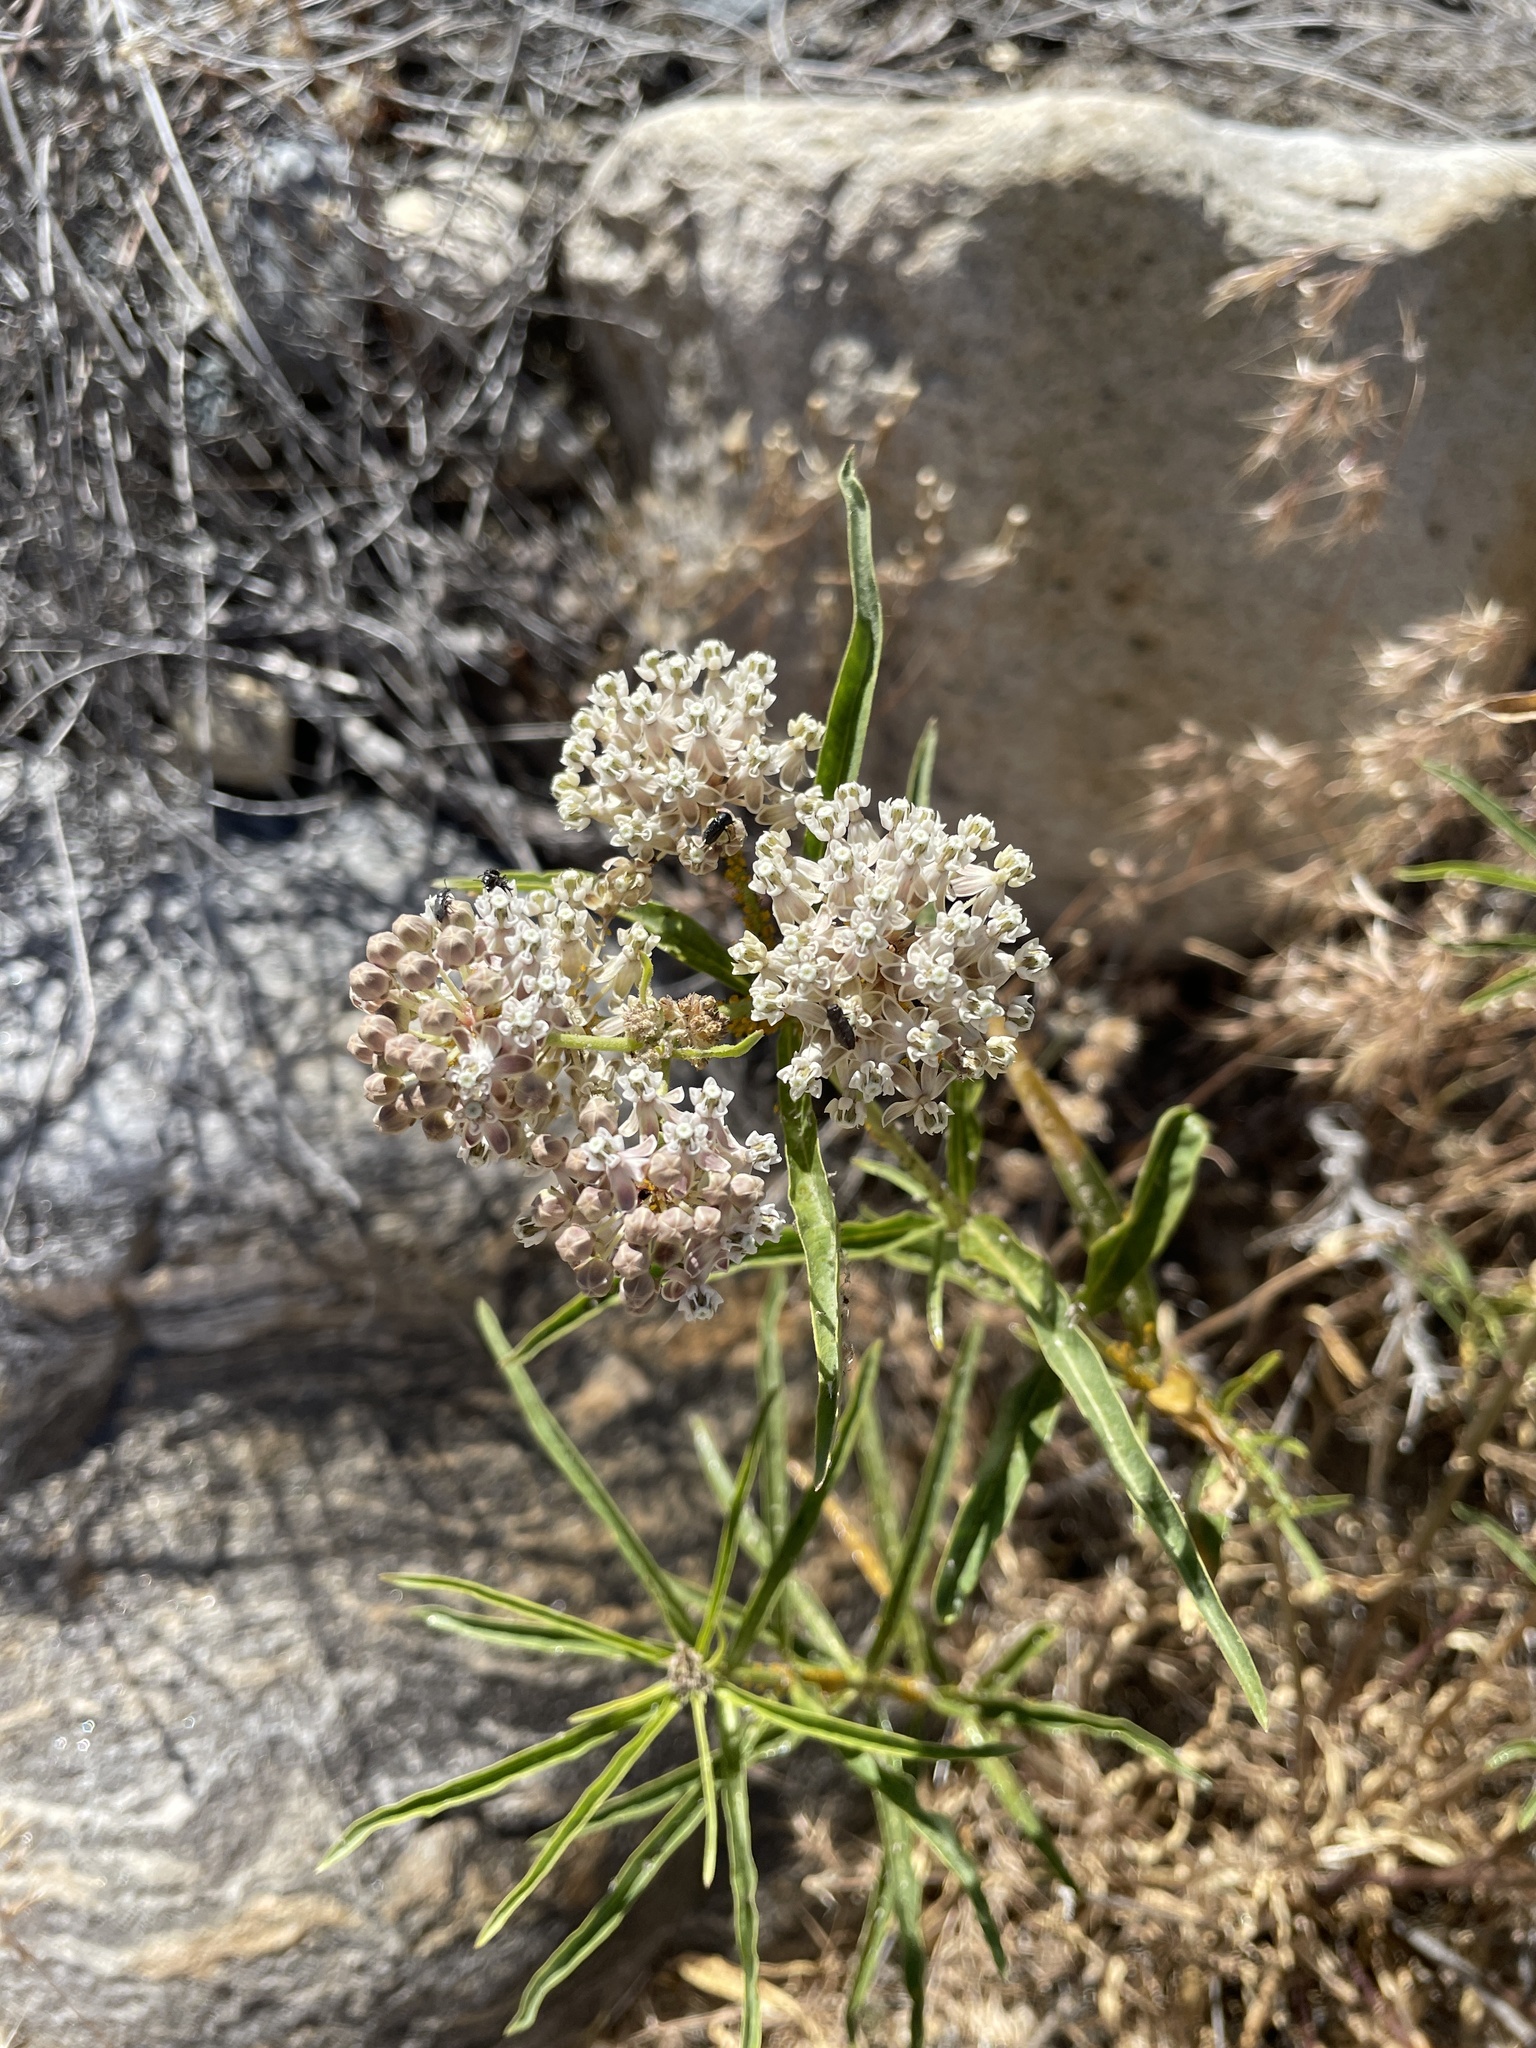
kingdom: Plantae
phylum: Tracheophyta
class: Magnoliopsida
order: Gentianales
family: Apocynaceae
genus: Asclepias
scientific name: Asclepias fascicularis
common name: Mexican milkweed
